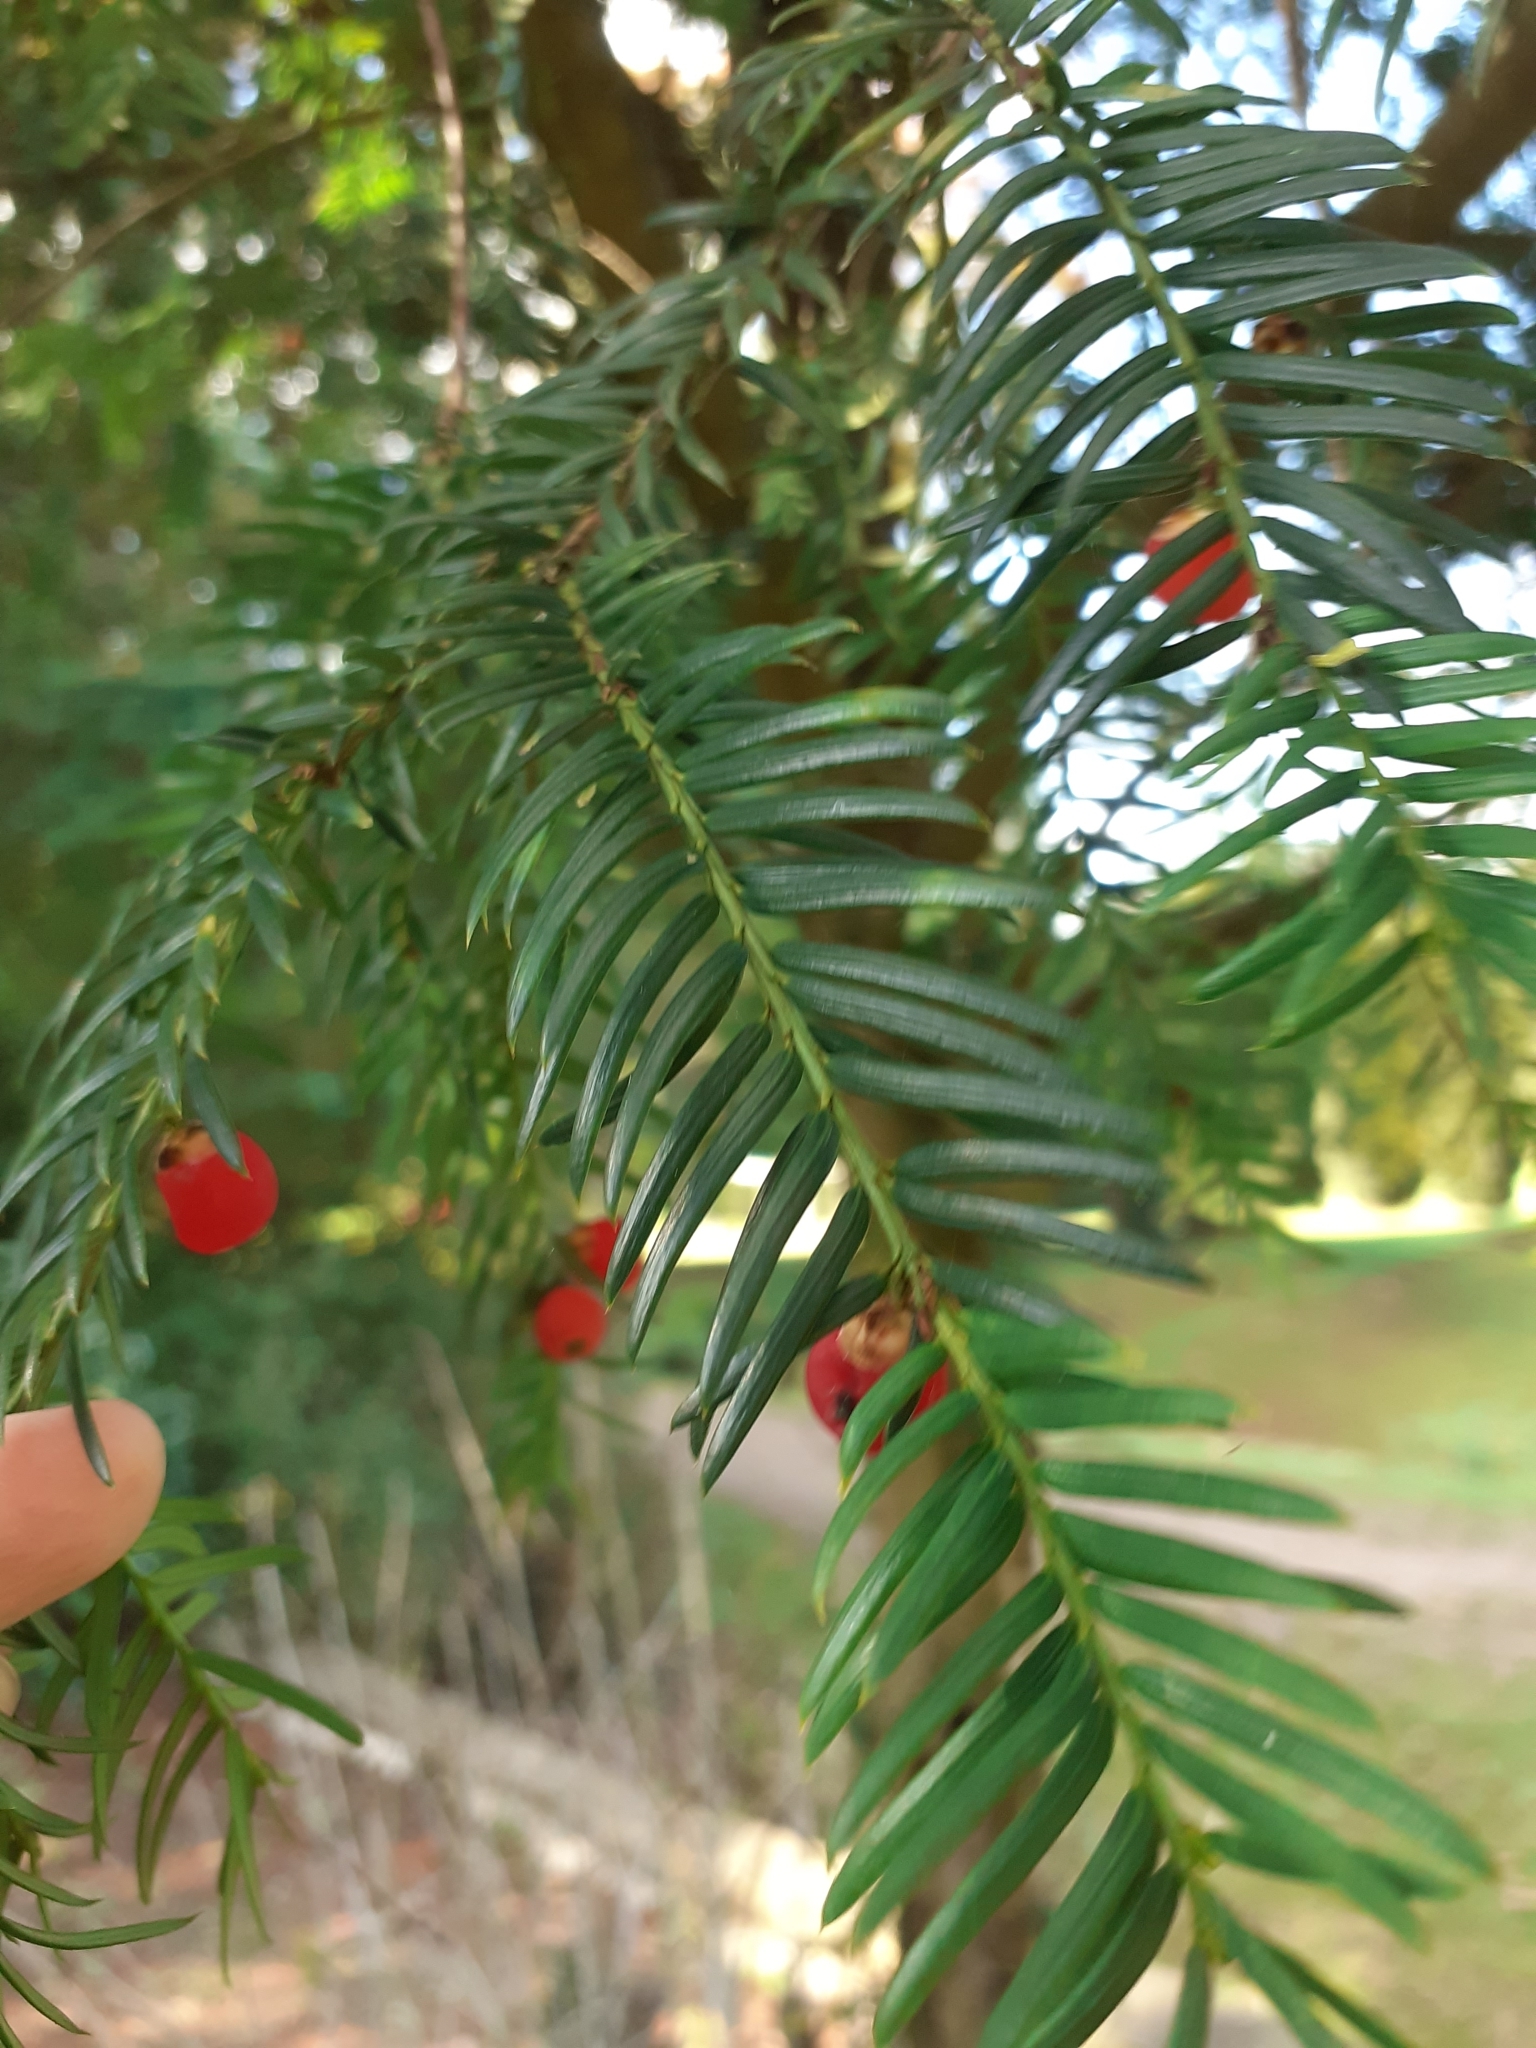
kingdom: Plantae
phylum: Tracheophyta
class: Pinopsida
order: Pinales
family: Taxaceae
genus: Taxus
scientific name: Taxus baccata
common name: Yew
